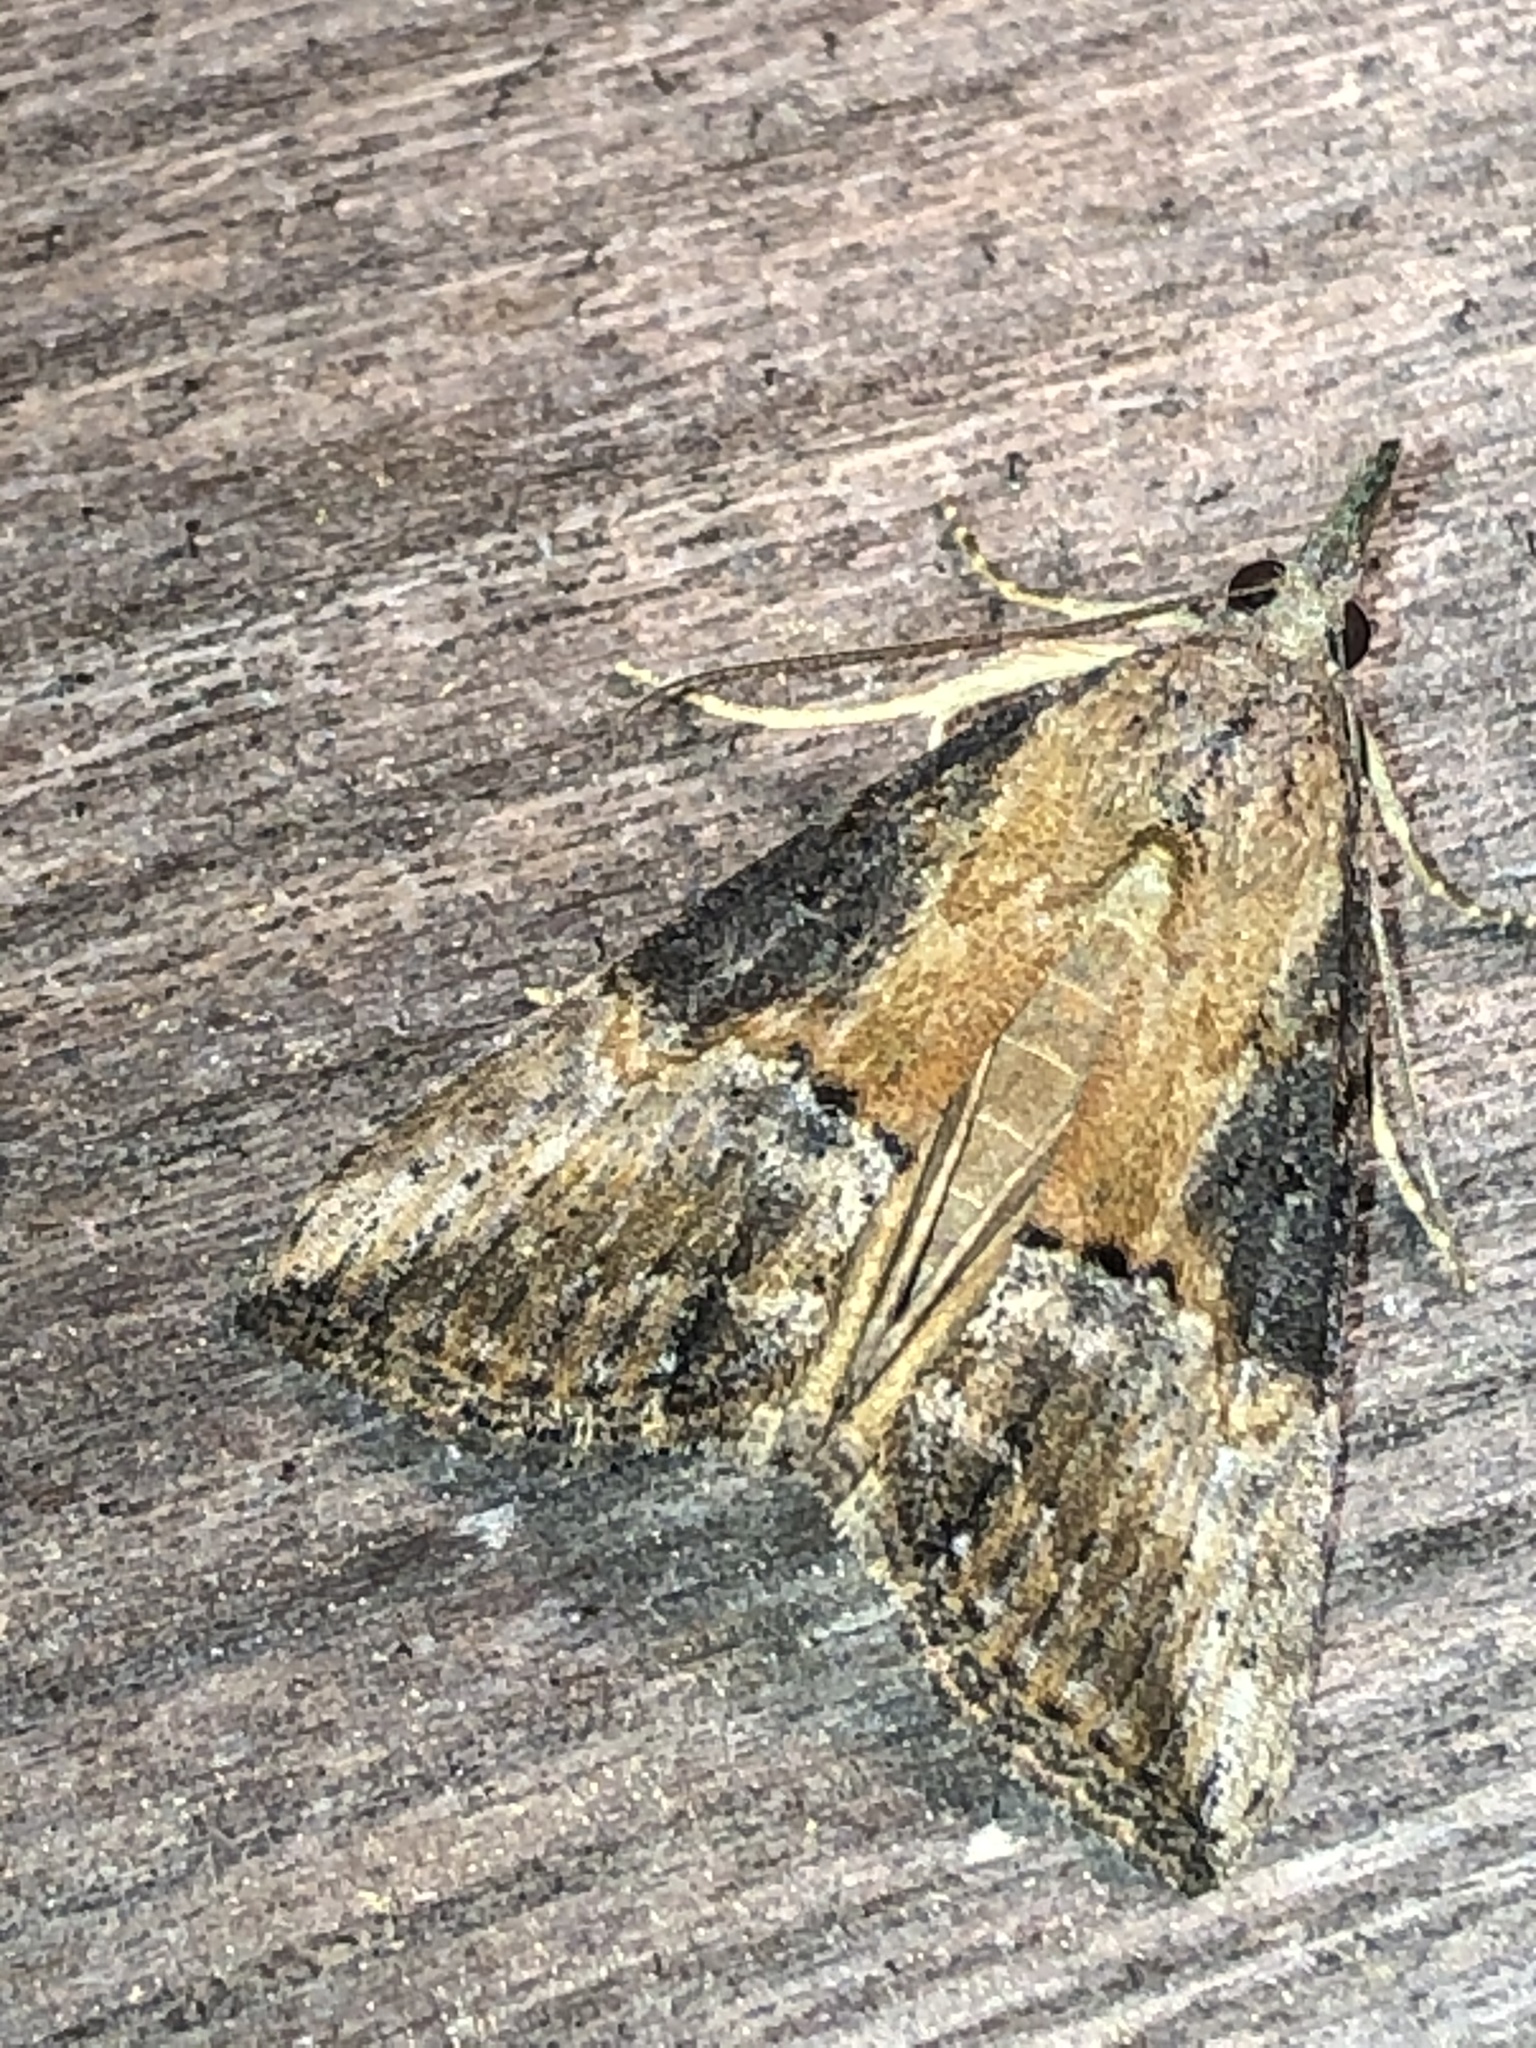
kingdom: Animalia
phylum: Arthropoda
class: Insecta
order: Lepidoptera
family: Erebidae
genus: Hypena
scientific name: Hypena scabra
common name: Green cloverworm
